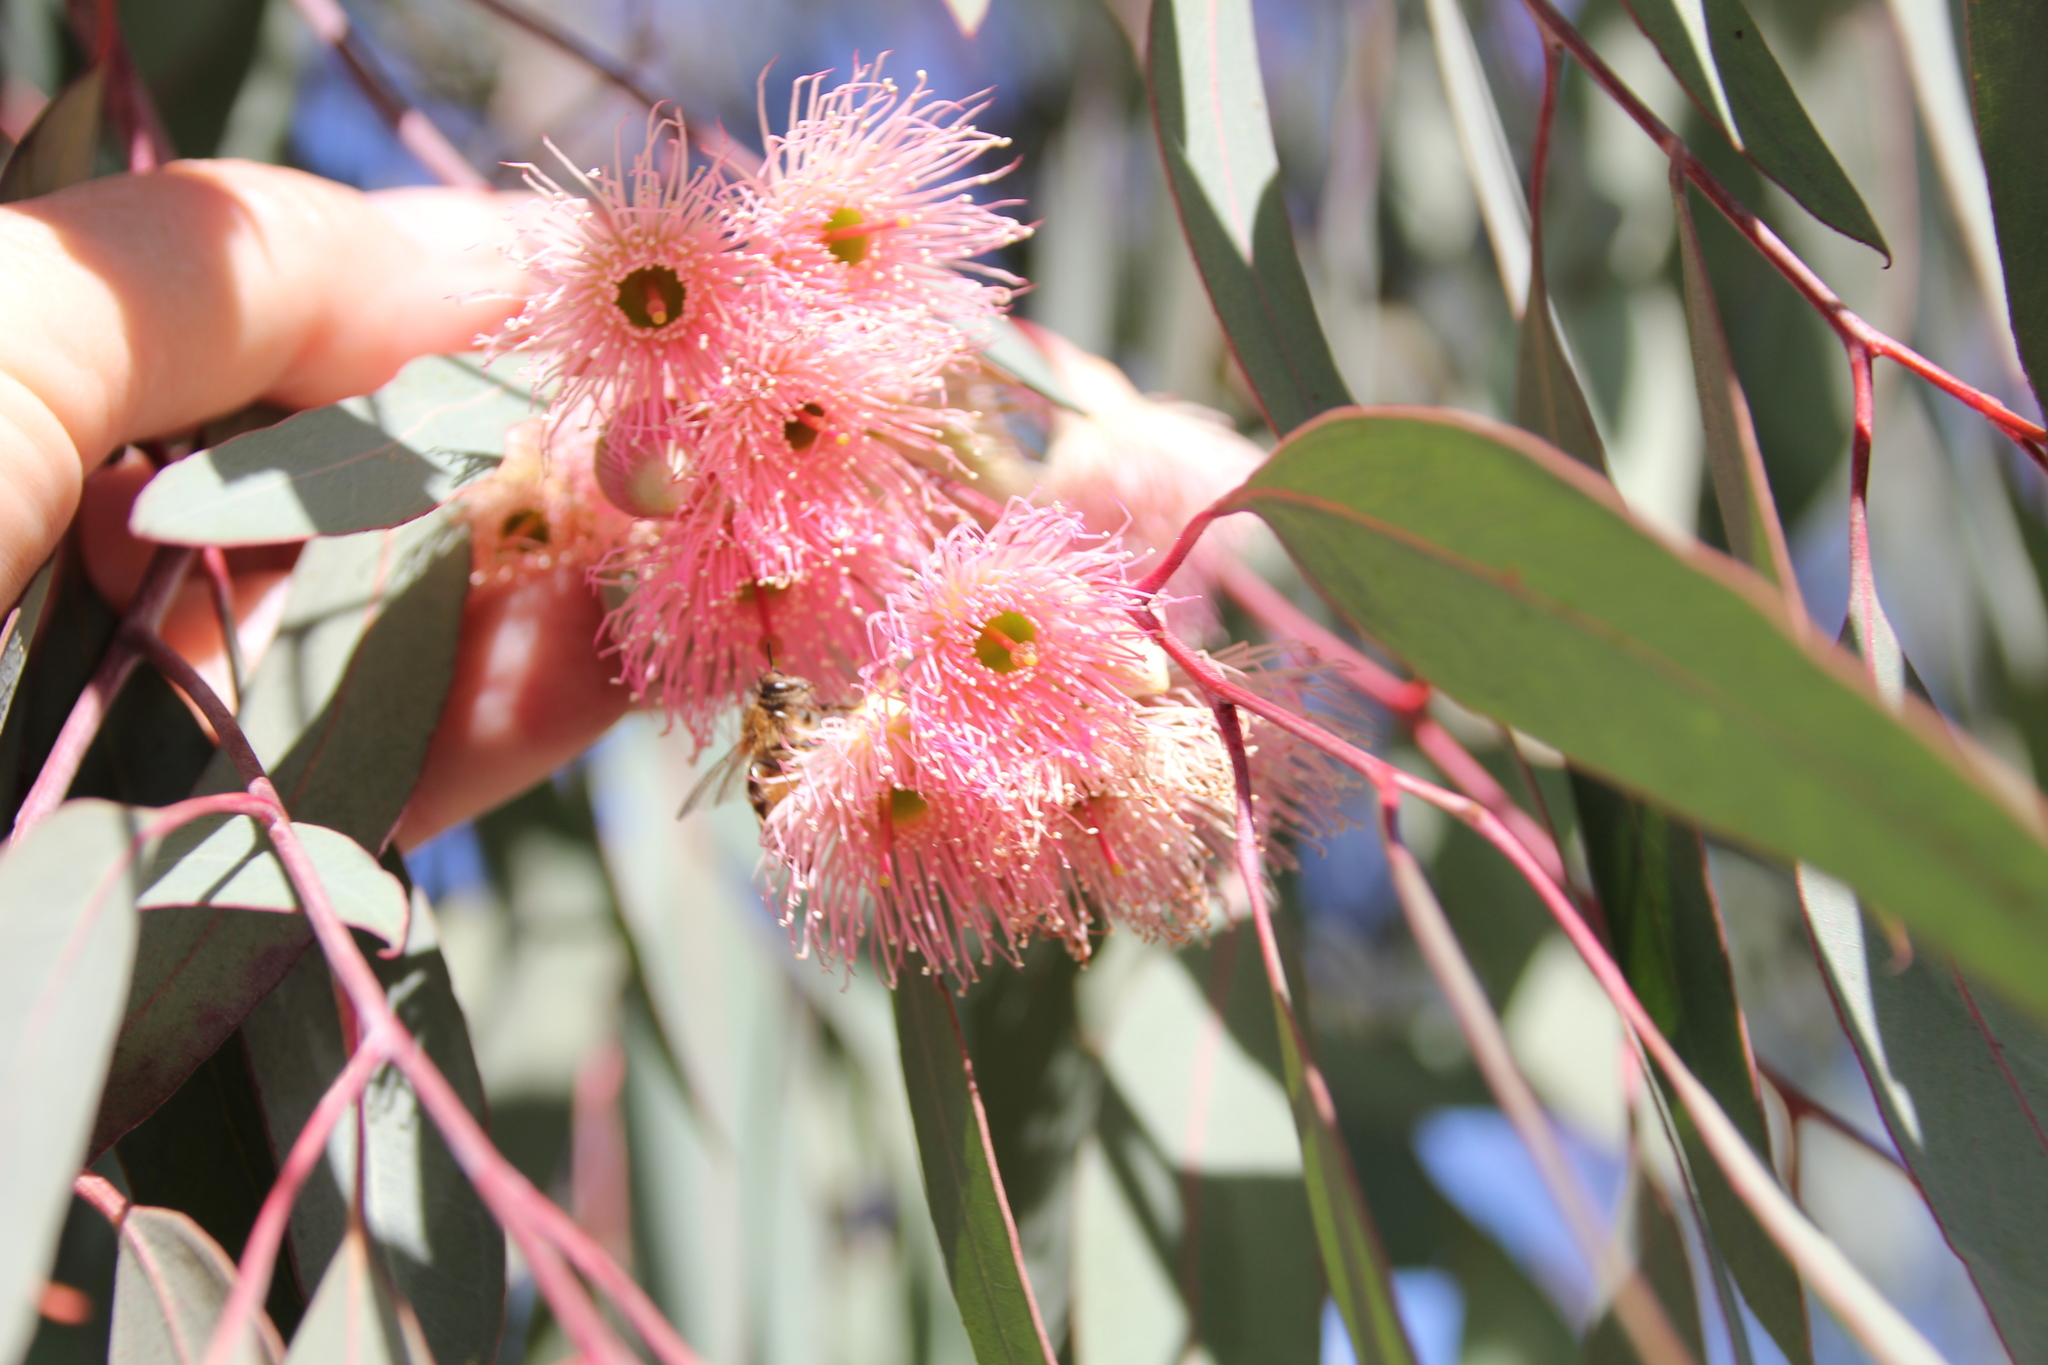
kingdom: Plantae
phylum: Tracheophyta
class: Magnoliopsida
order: Myrtales
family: Myrtaceae
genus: Eucalyptus
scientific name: Eucalyptus sideroxylon
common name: Red ironbark
